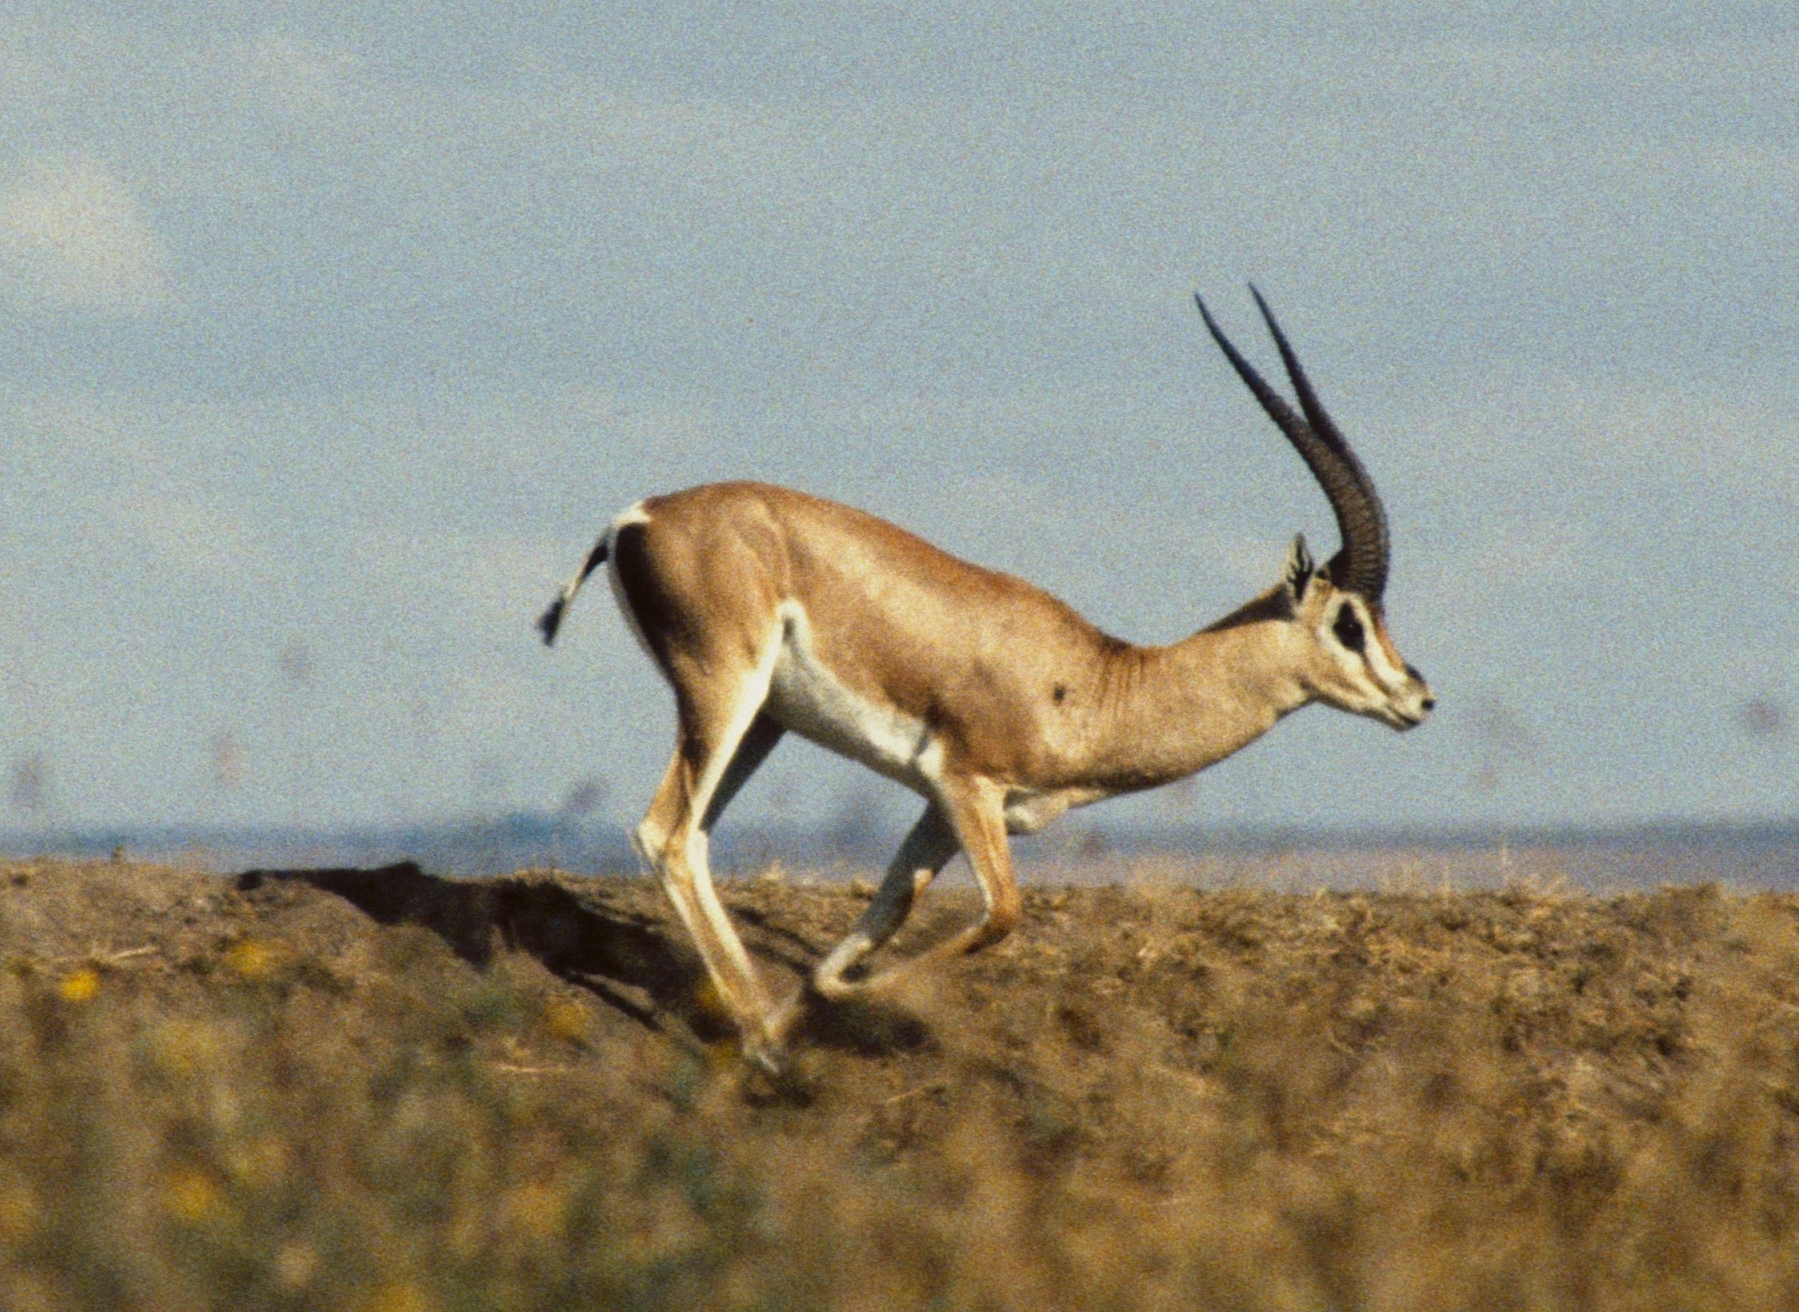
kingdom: Animalia
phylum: Chordata
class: Mammalia
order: Artiodactyla
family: Bovidae
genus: Nanger
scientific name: Nanger granti
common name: Grant's gazelle
